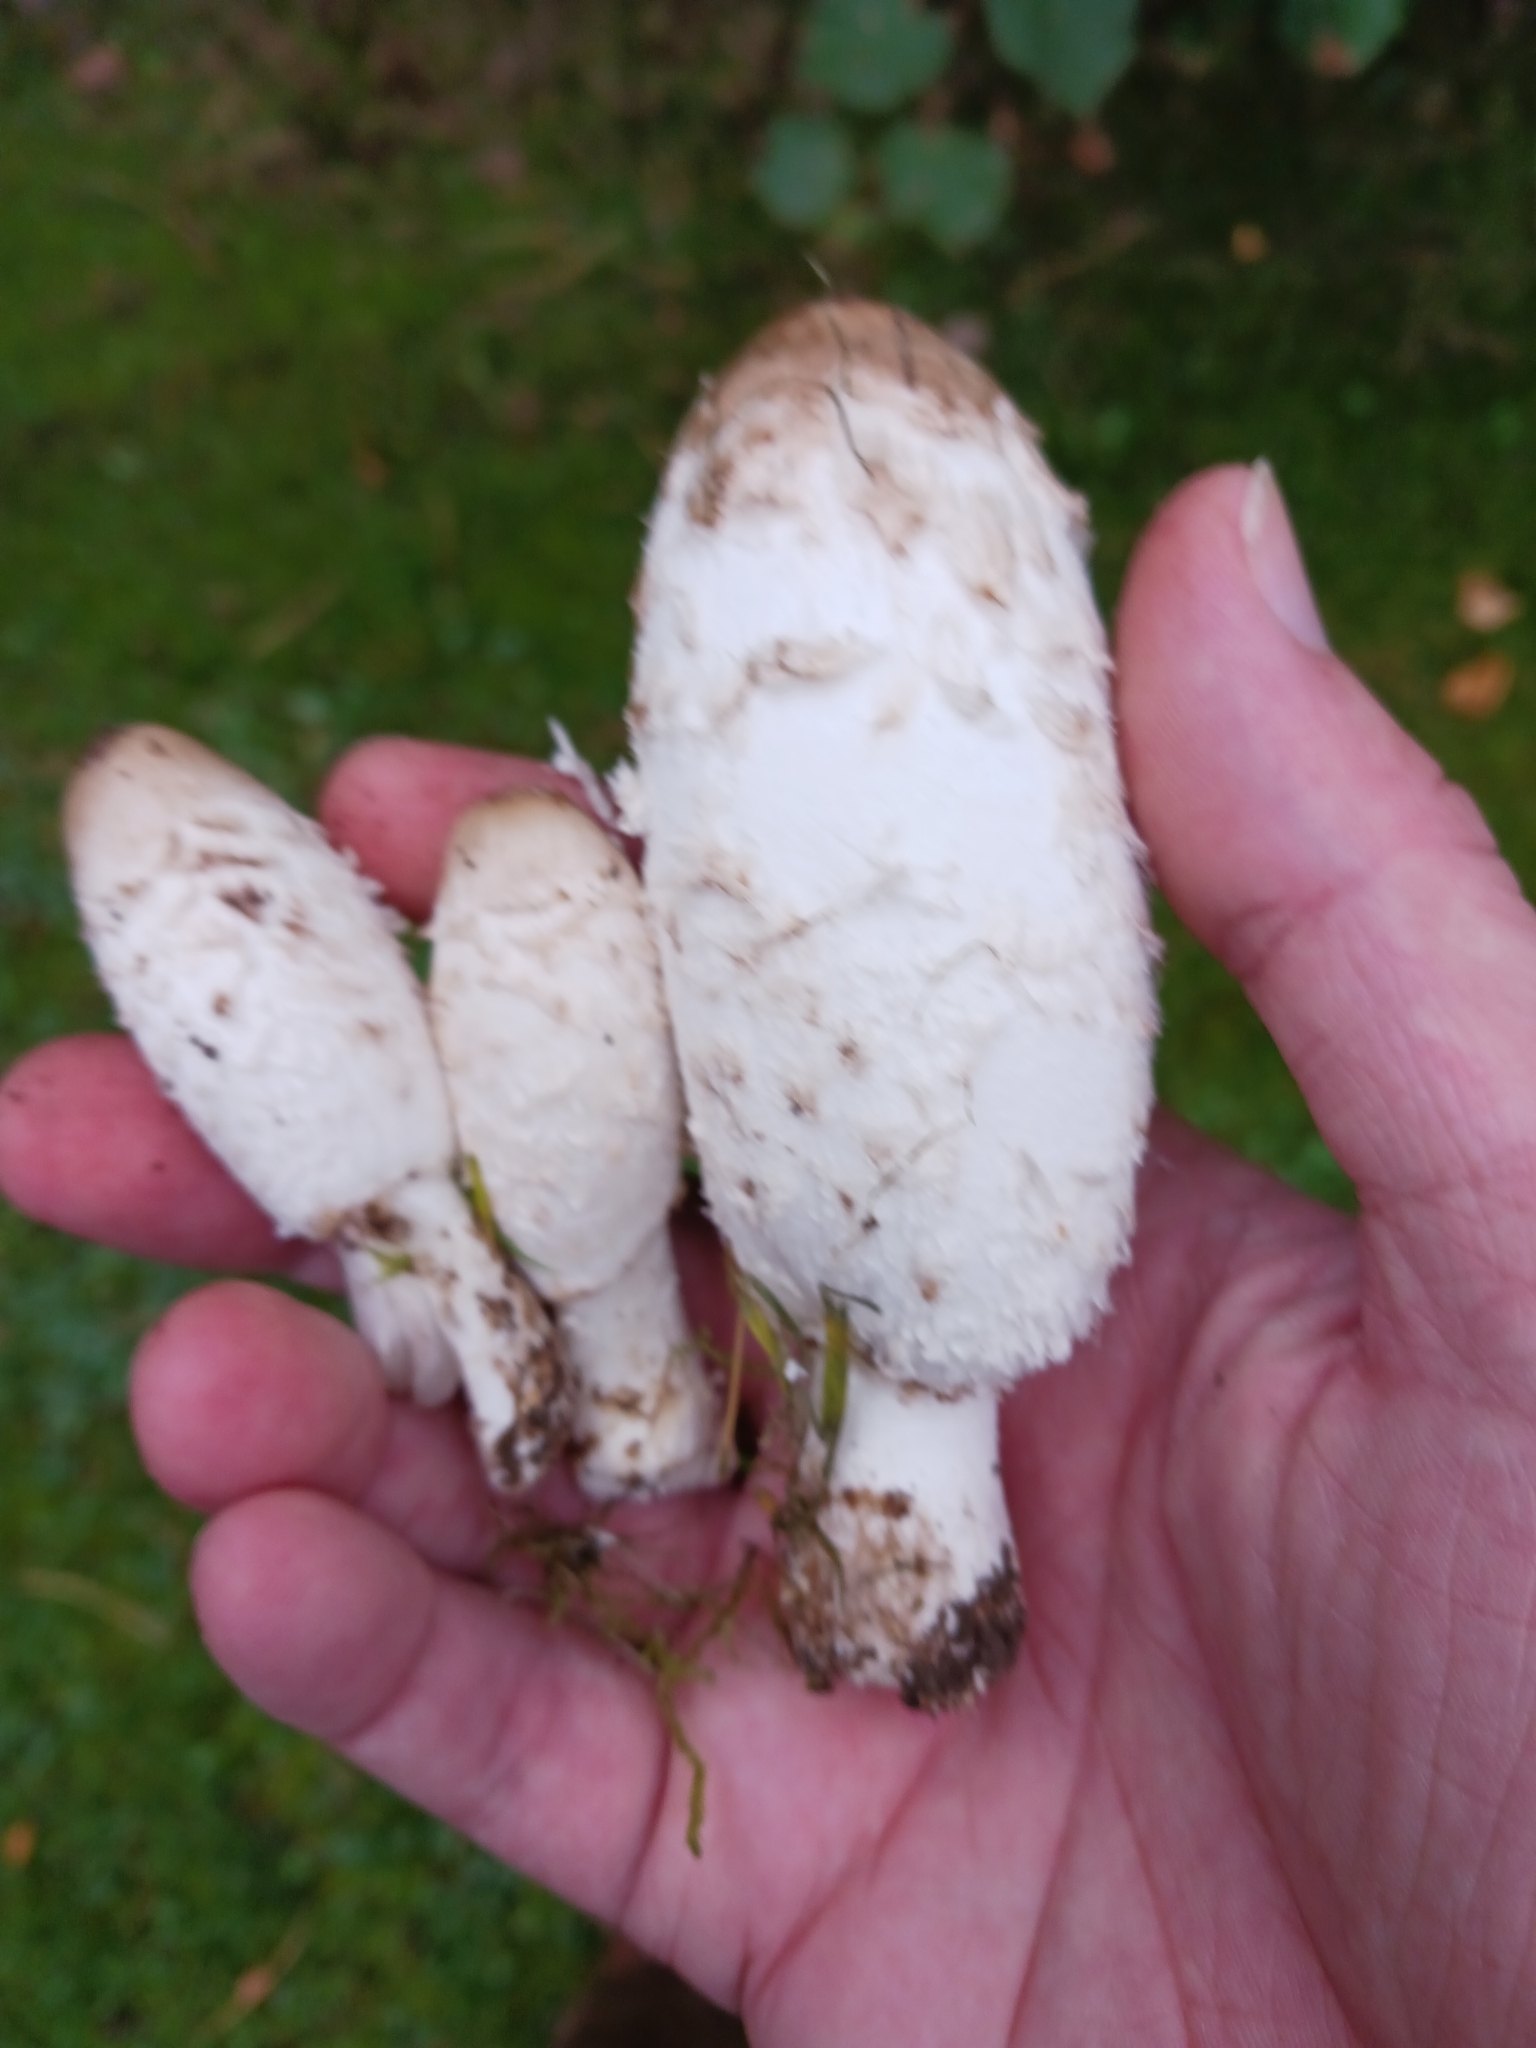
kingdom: Fungi
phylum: Basidiomycota
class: Agaricomycetes
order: Agaricales
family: Agaricaceae
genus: Coprinus
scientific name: Coprinus comatus
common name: Lawyer's wig
